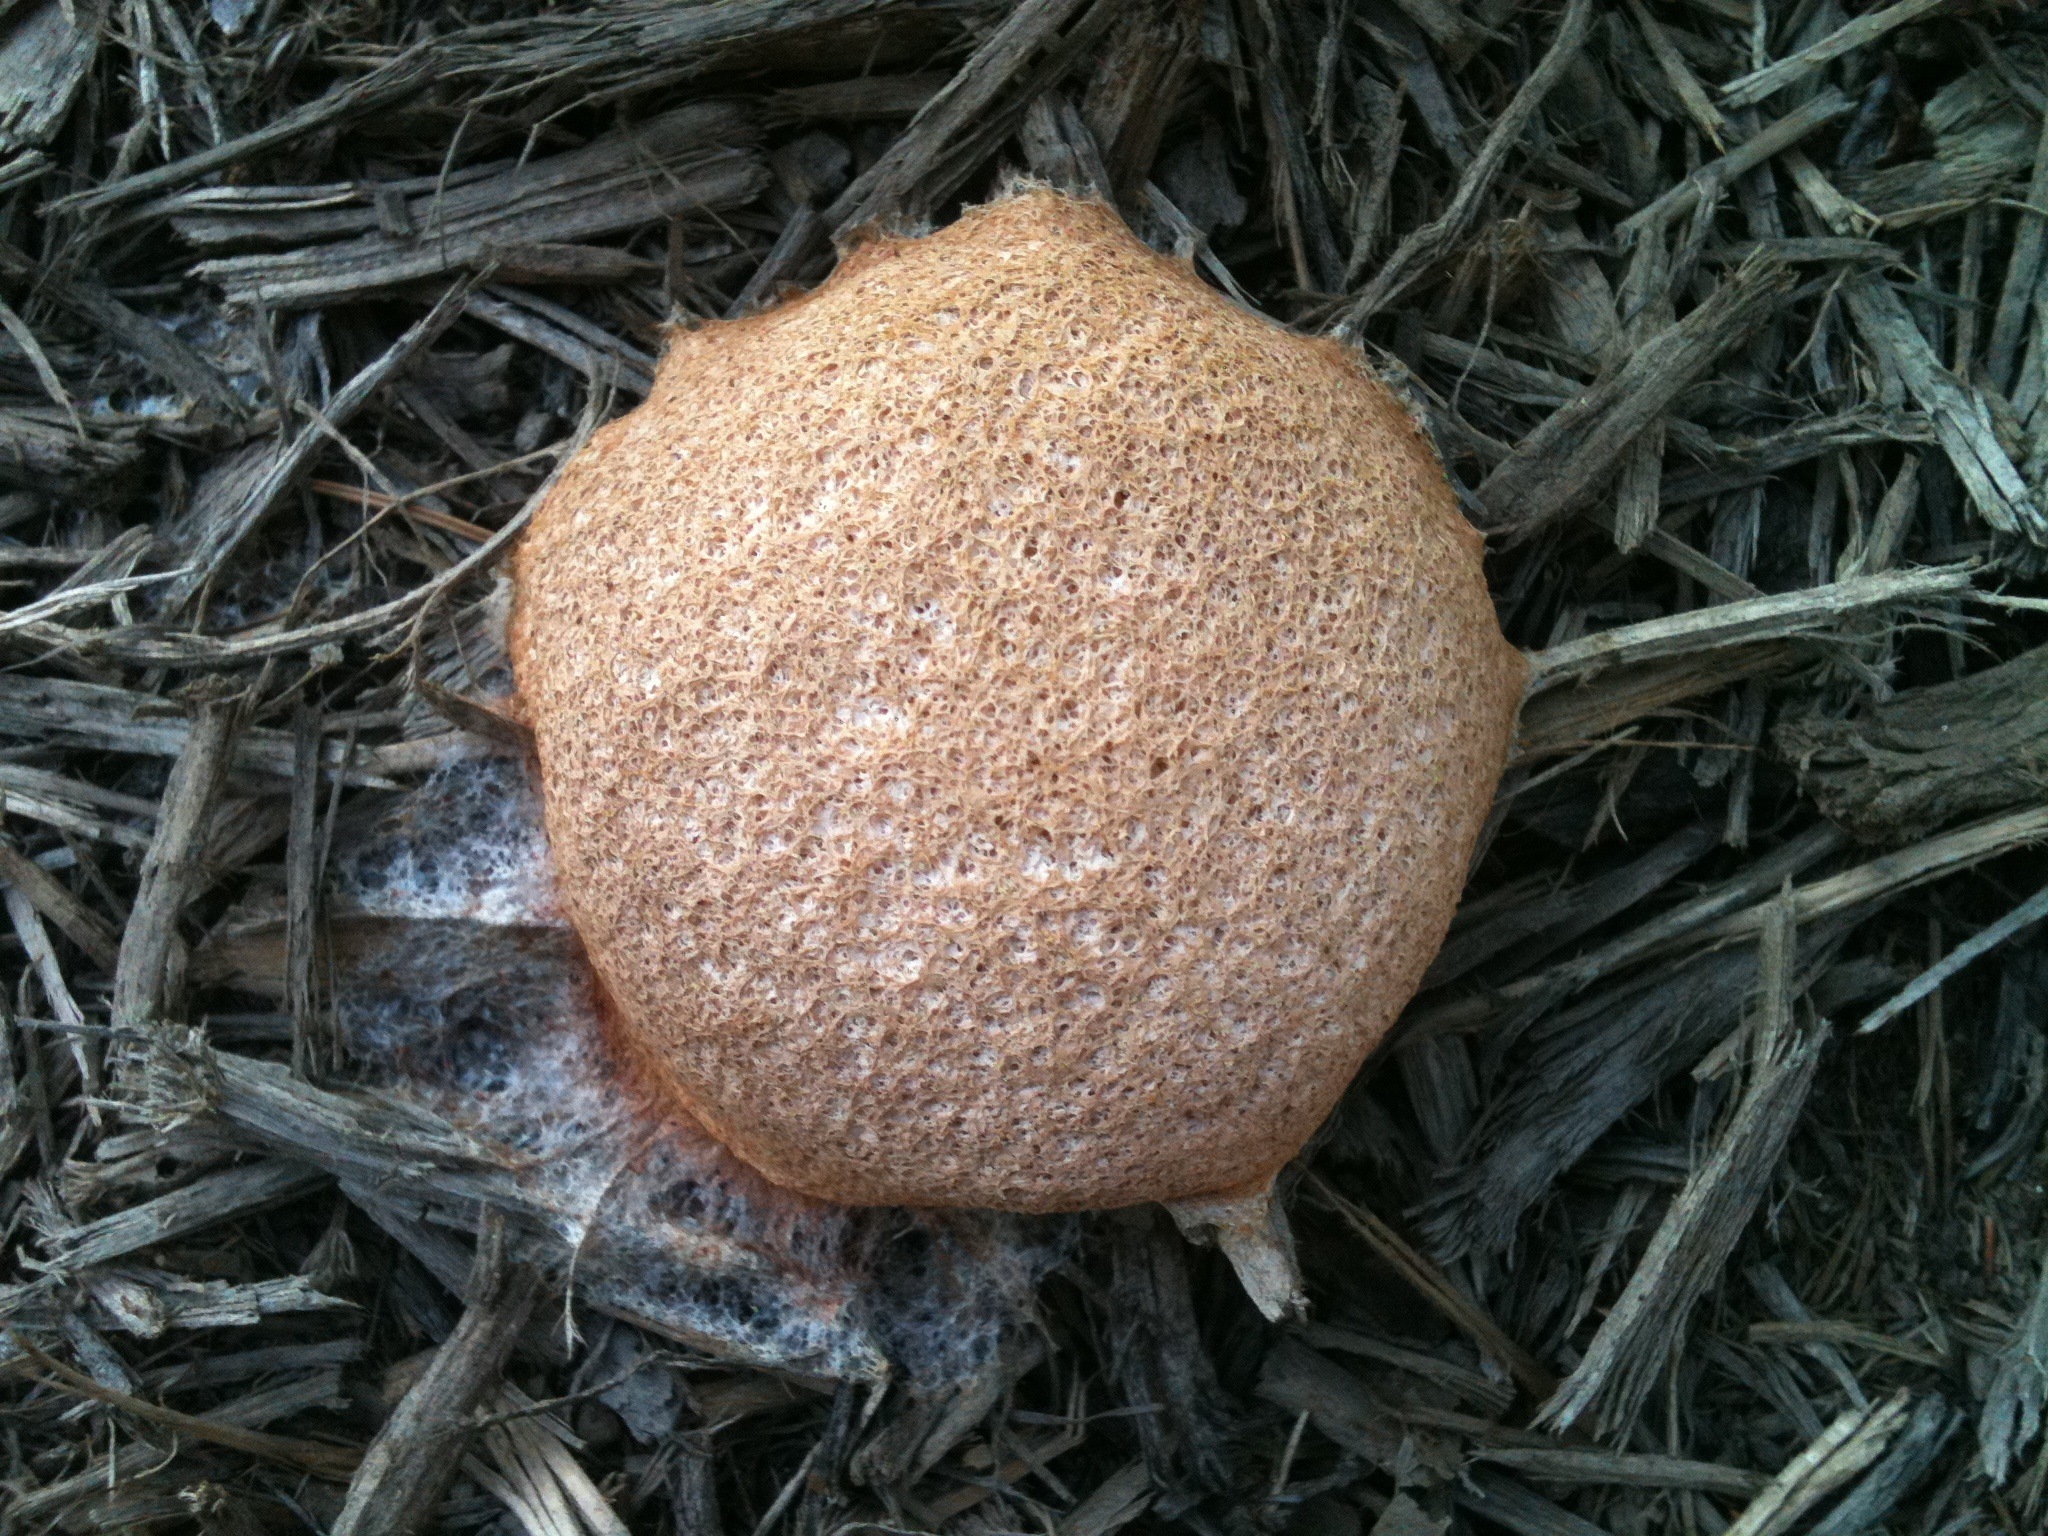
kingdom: Protozoa
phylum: Mycetozoa
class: Myxomycetes
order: Physarales
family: Physaraceae
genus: Fuligo
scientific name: Fuligo septica
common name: Dog vomit slime mold
